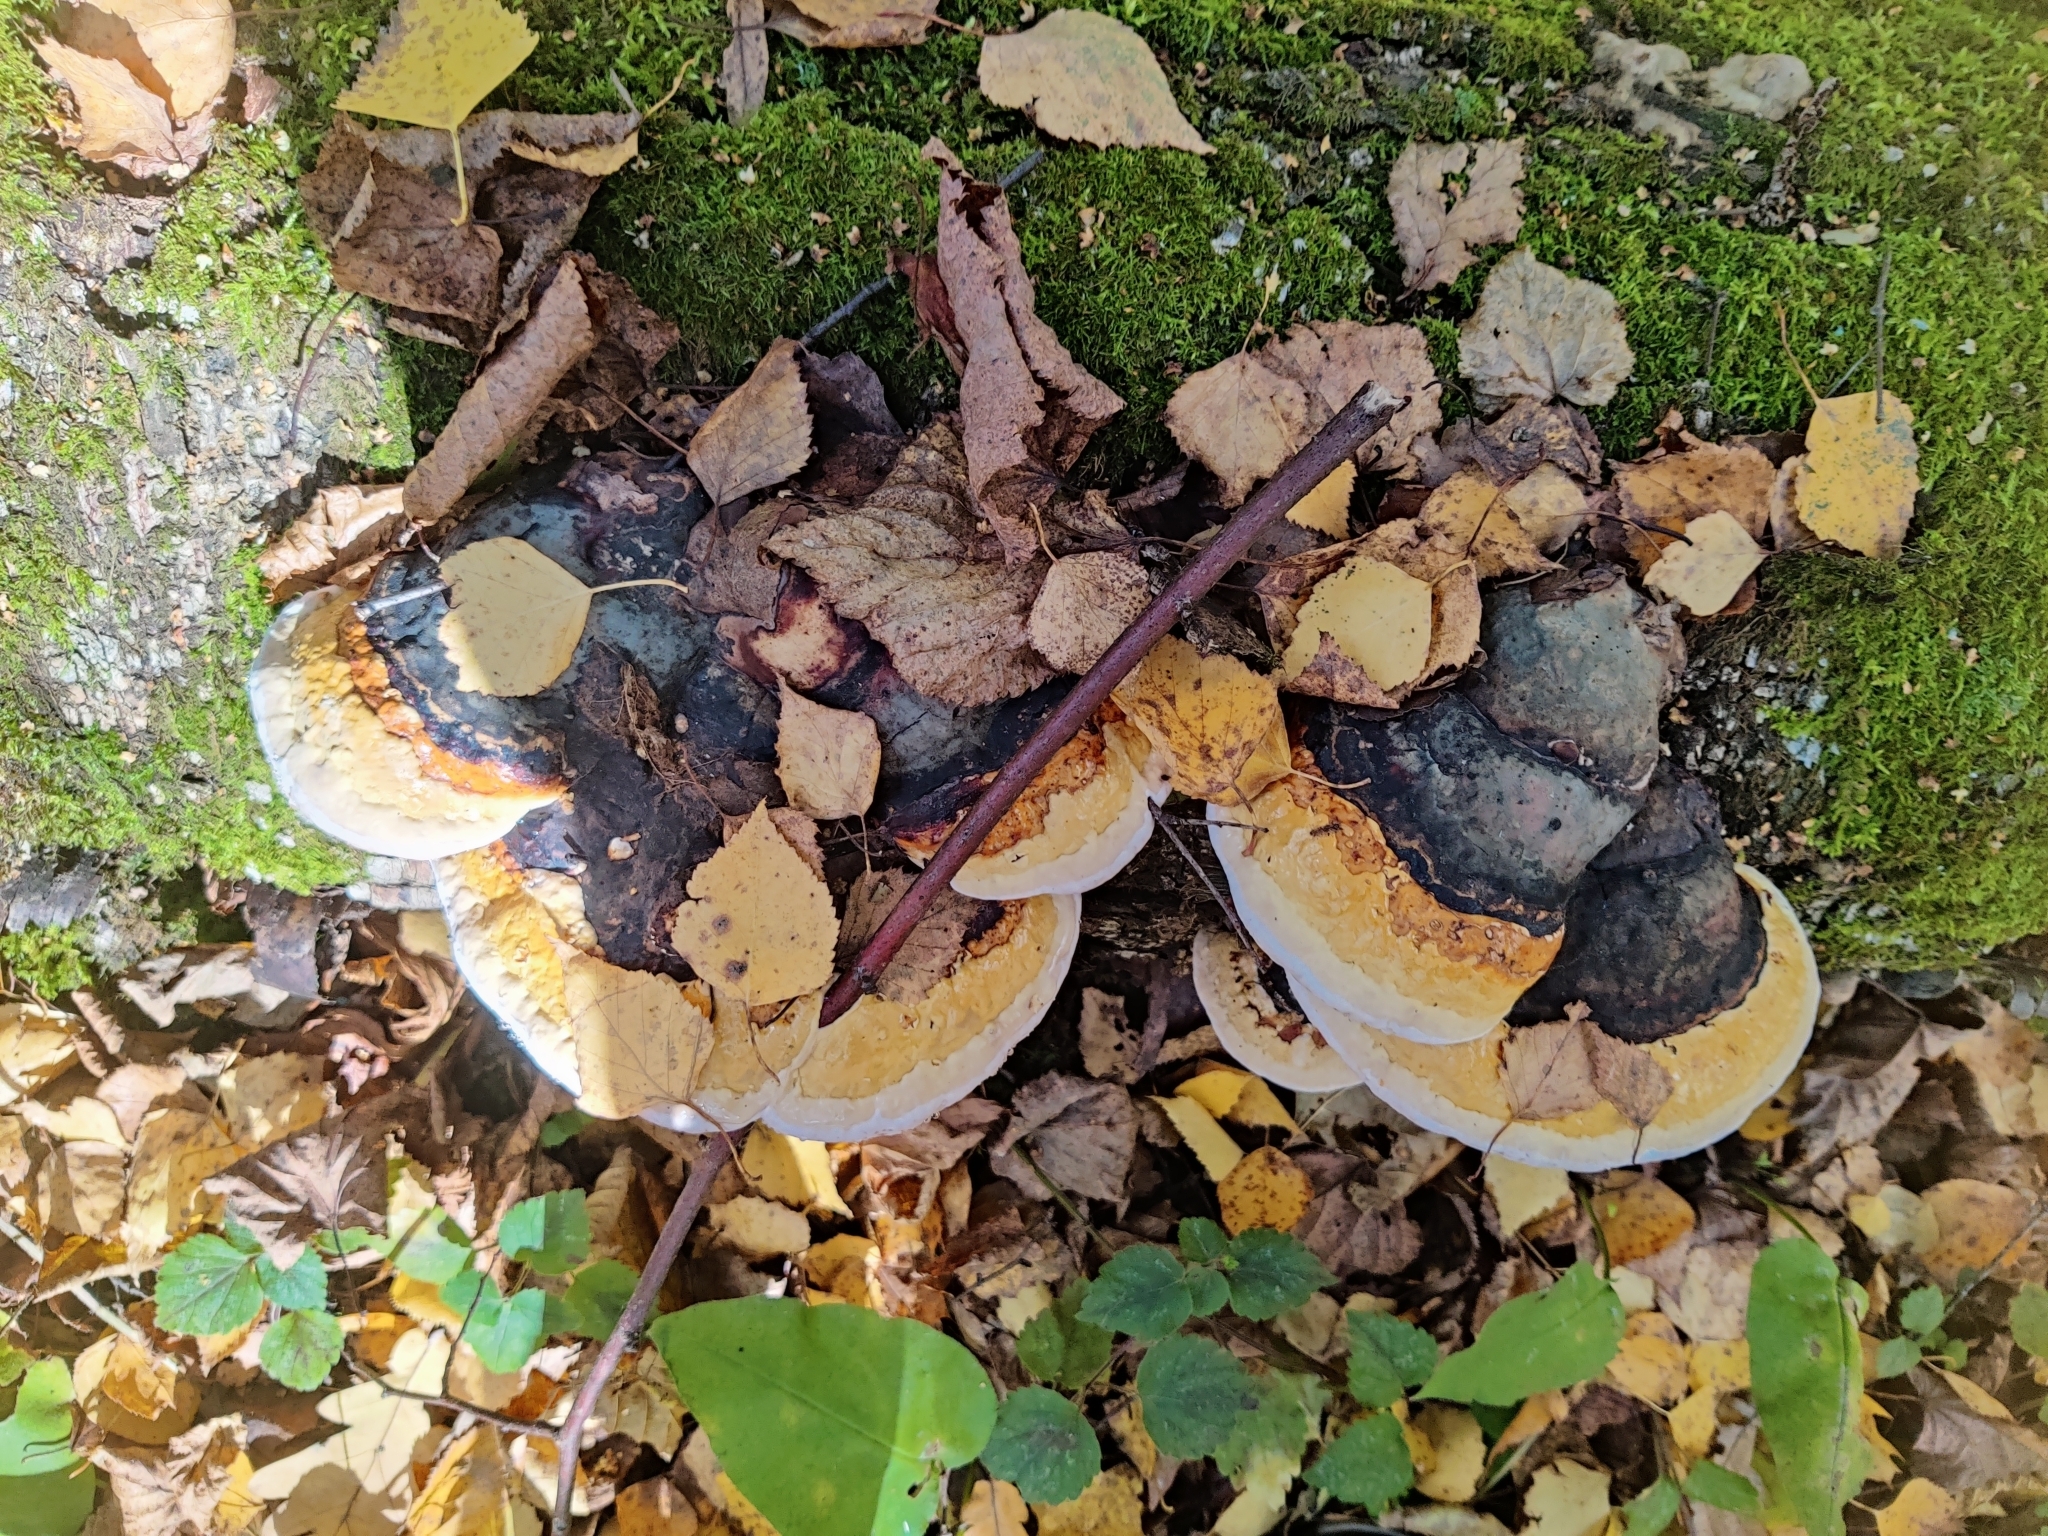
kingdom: Fungi
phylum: Basidiomycota
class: Agaricomycetes
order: Gloeophyllales
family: Gloeophyllaceae
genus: Gloeophyllum
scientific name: Gloeophyllum odoratum
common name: Anise mazegill
